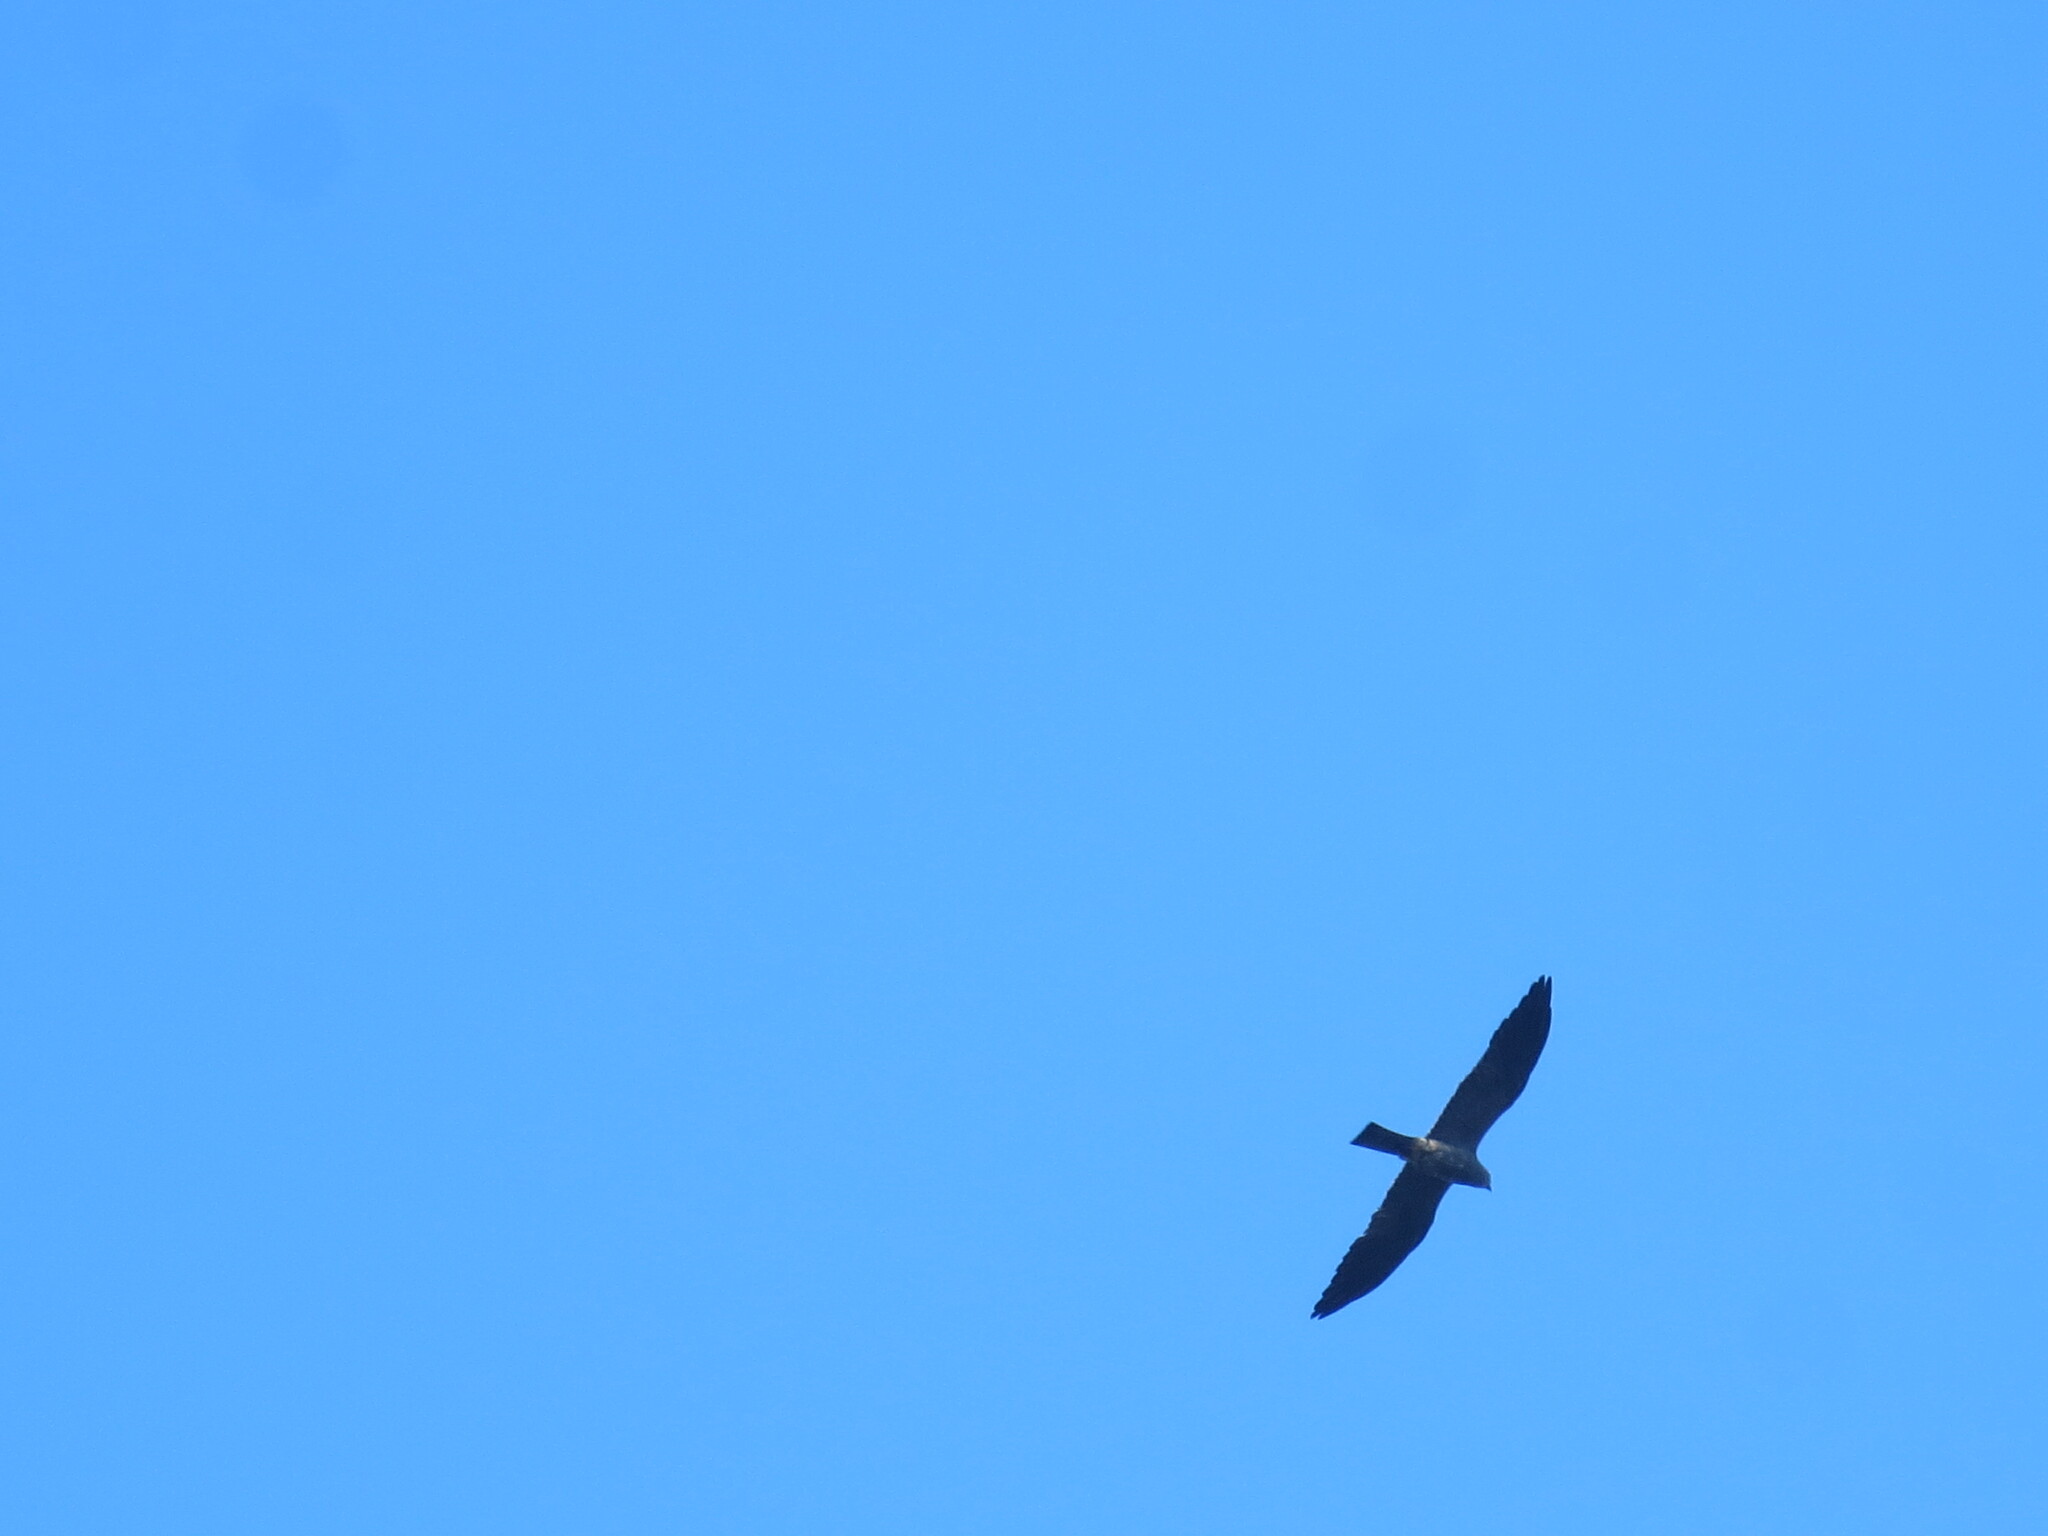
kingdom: Animalia
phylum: Chordata
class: Aves
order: Accipitriformes
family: Accipitridae
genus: Ictinia
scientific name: Ictinia mississippiensis
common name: Mississippi kite
